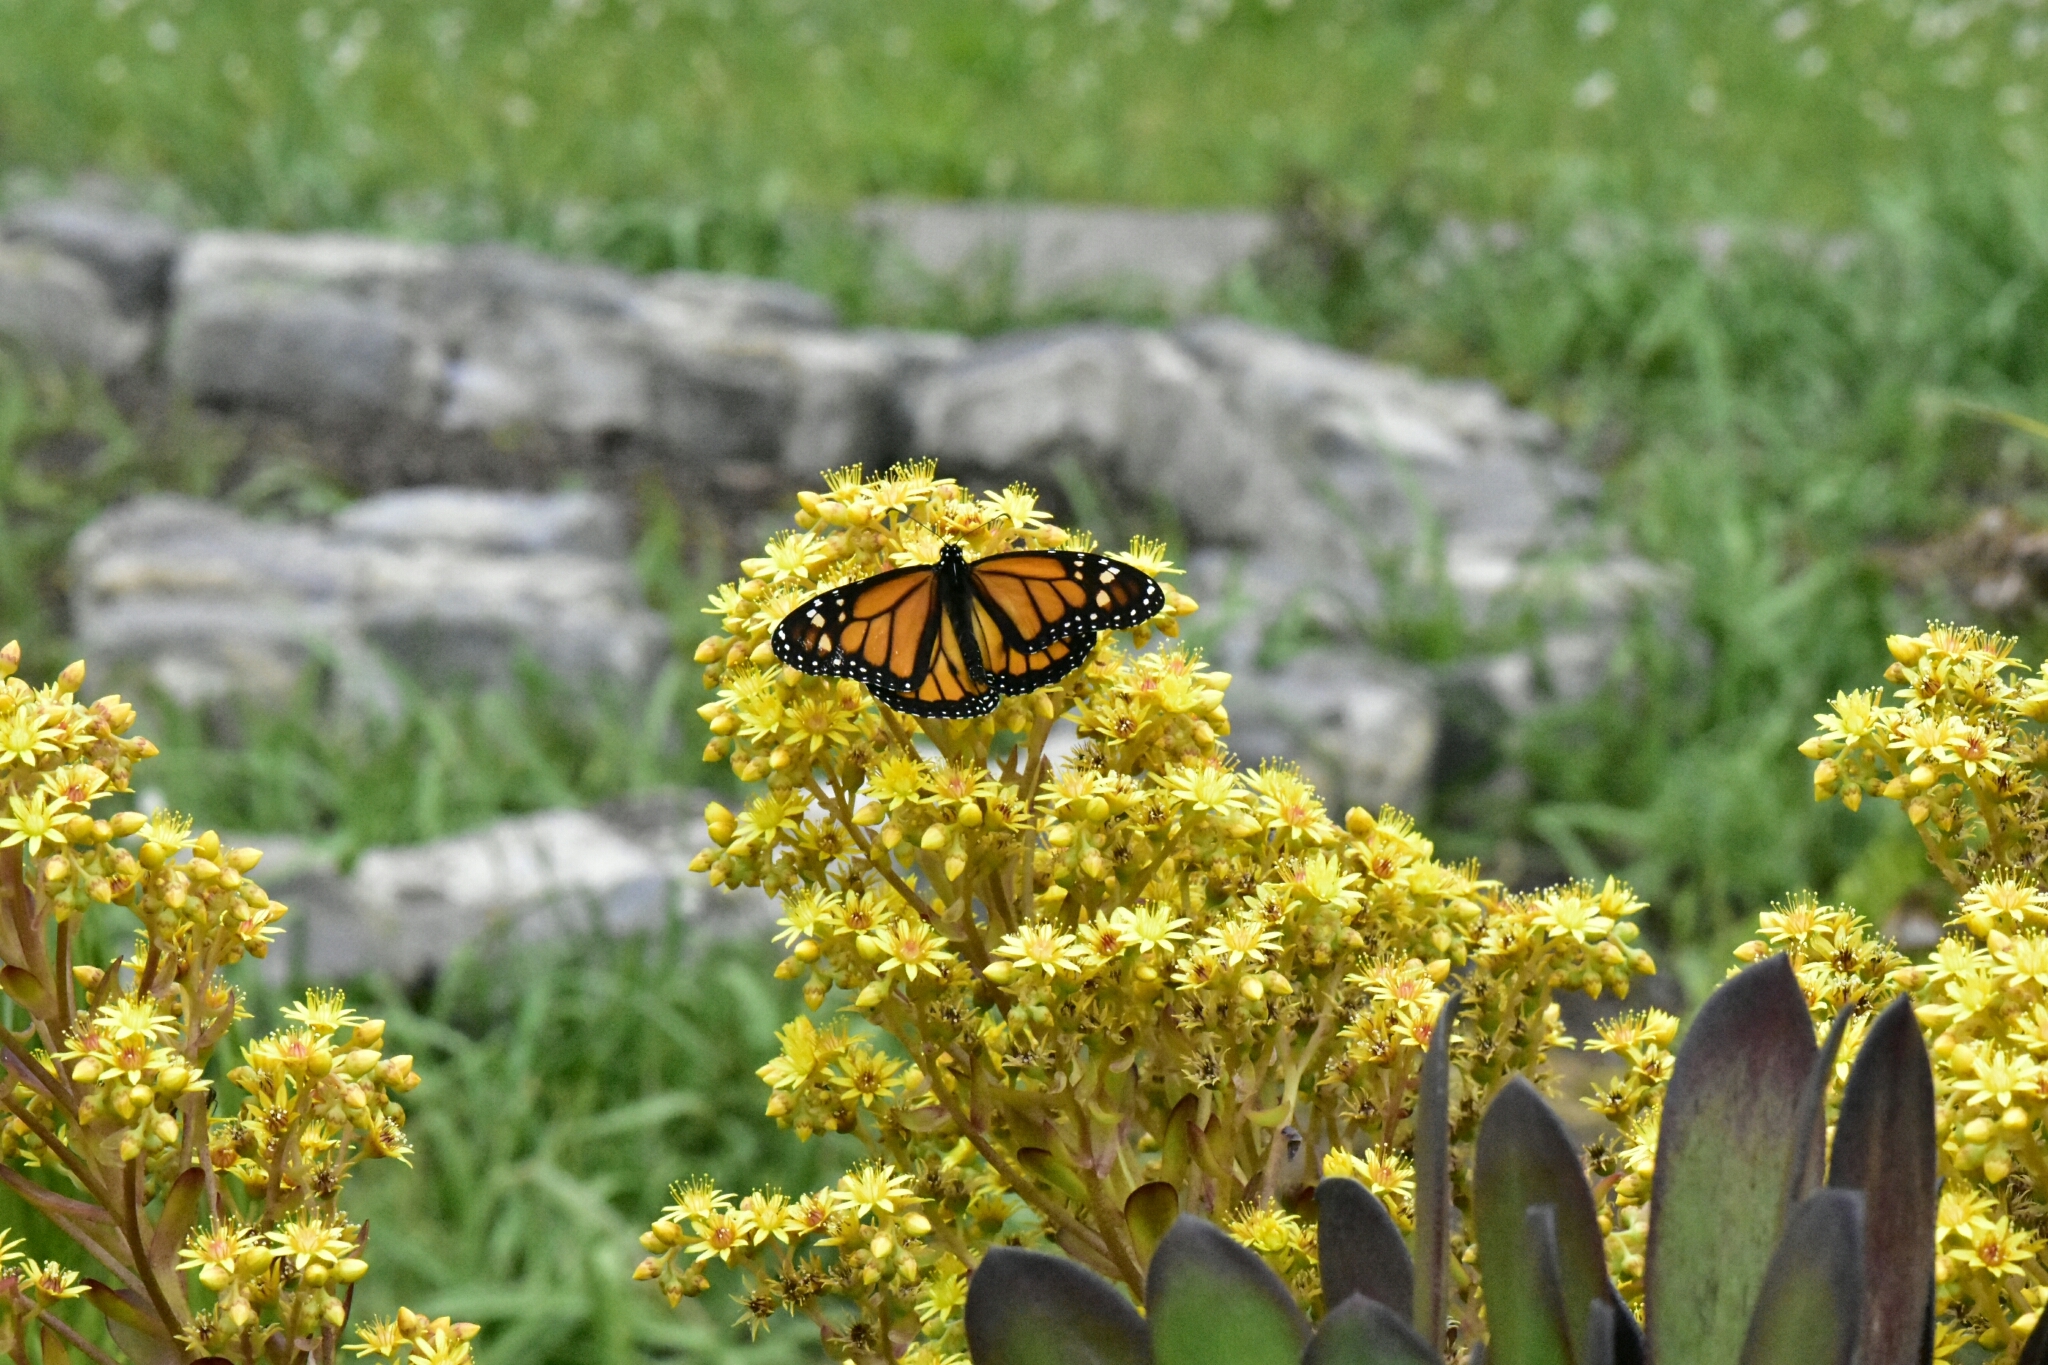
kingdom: Animalia
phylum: Arthropoda
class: Insecta
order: Lepidoptera
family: Nymphalidae
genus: Danaus
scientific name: Danaus plexippus
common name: Monarch
